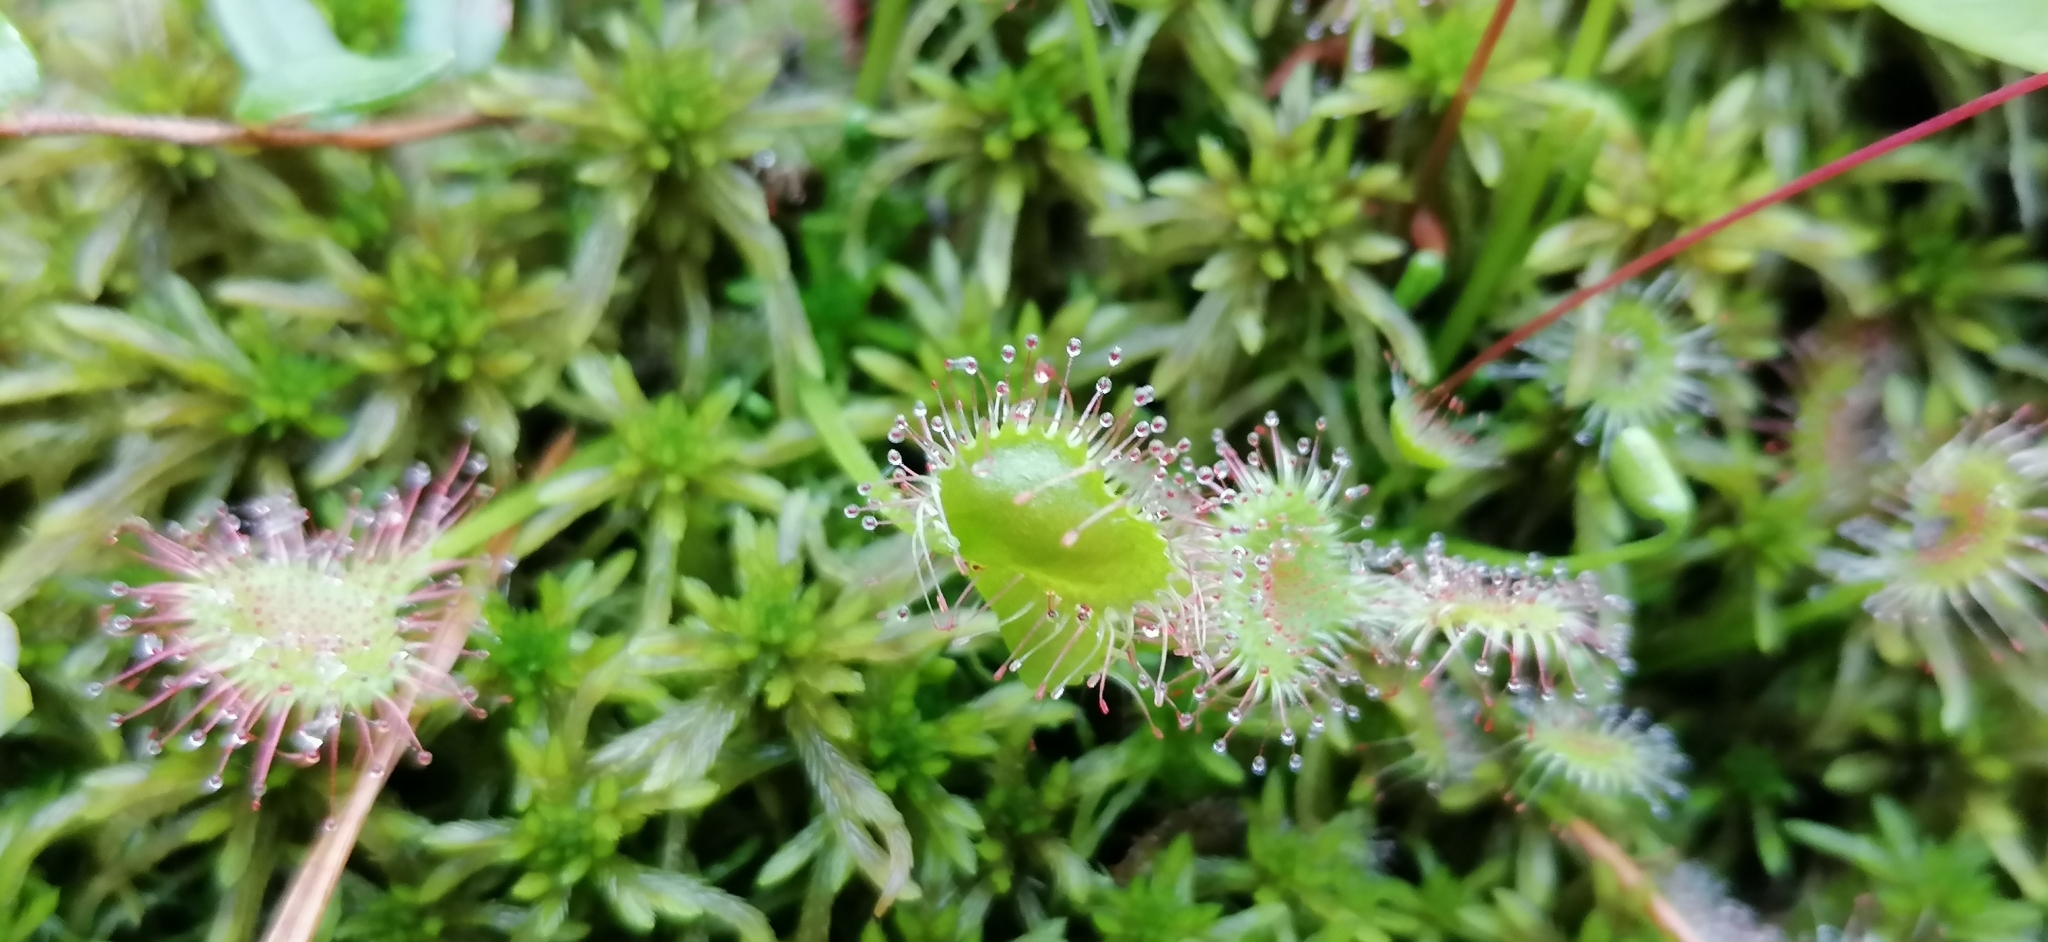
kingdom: Plantae
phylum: Tracheophyta
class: Magnoliopsida
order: Caryophyllales
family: Droseraceae
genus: Drosera
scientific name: Drosera rotundifolia
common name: Round-leaved sundew
